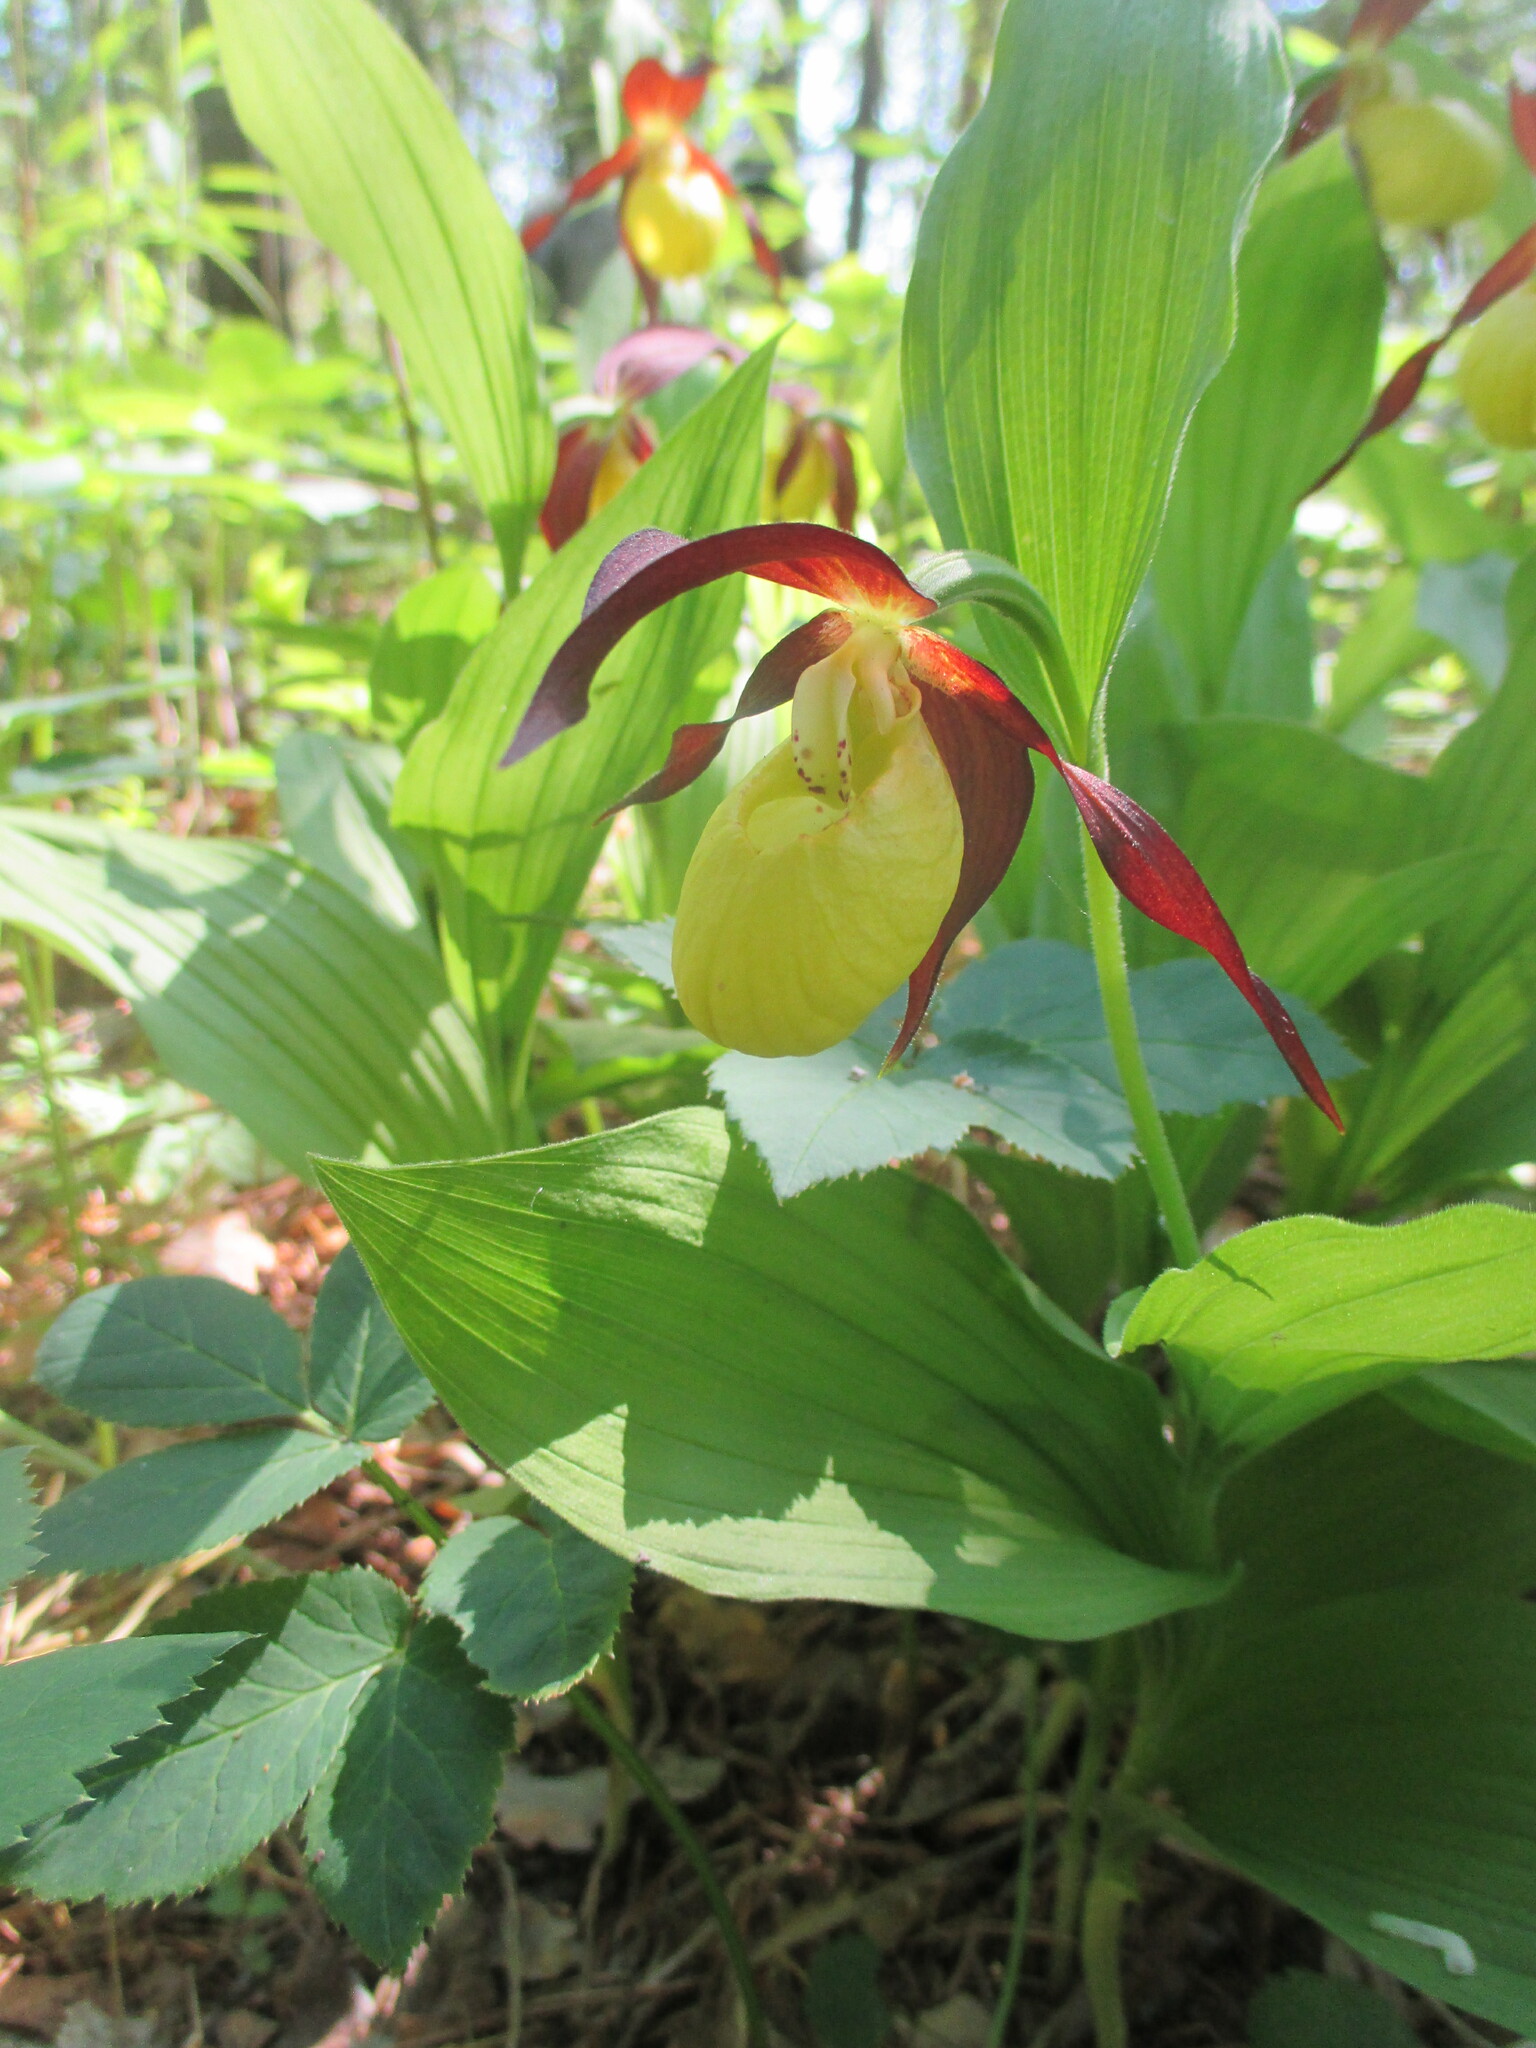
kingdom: Plantae
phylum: Tracheophyta
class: Liliopsida
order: Asparagales
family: Orchidaceae
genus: Cypripedium
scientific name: Cypripedium calceolus
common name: Lady's-slipper
